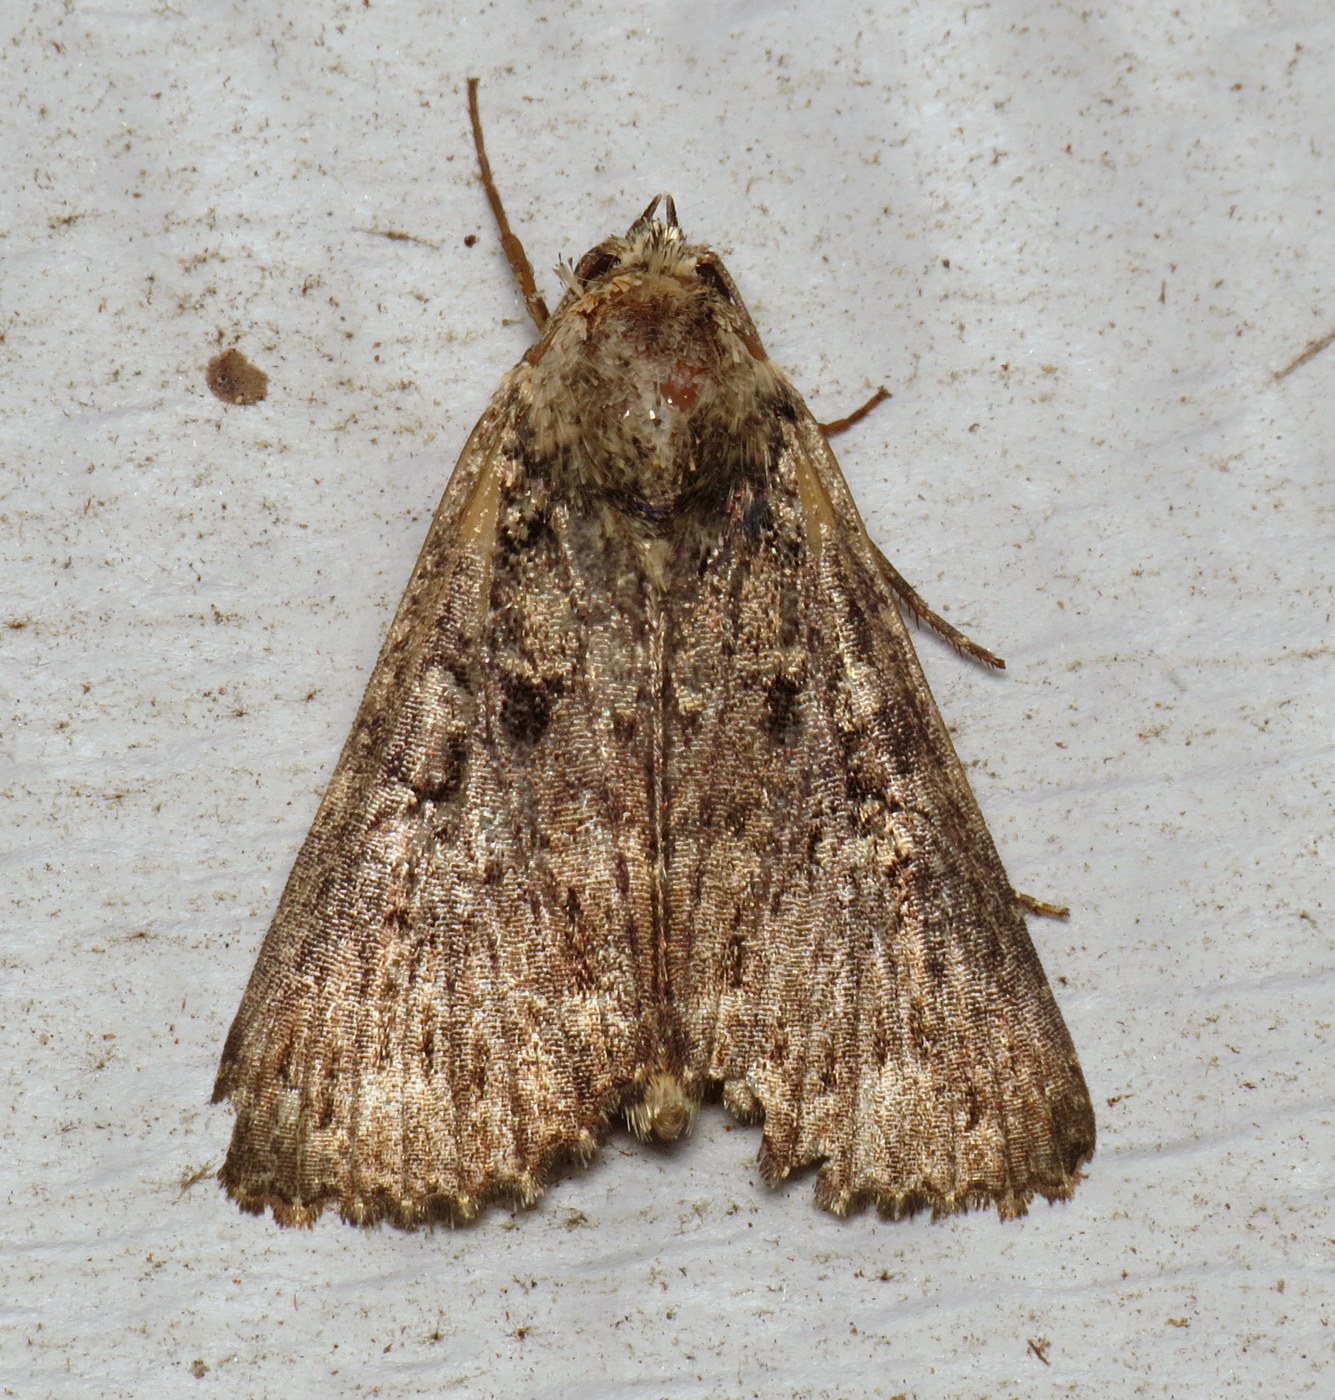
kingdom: Animalia
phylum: Arthropoda
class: Insecta
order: Lepidoptera
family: Noctuidae
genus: Condica
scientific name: Condica vecors
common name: Dusky groundling
